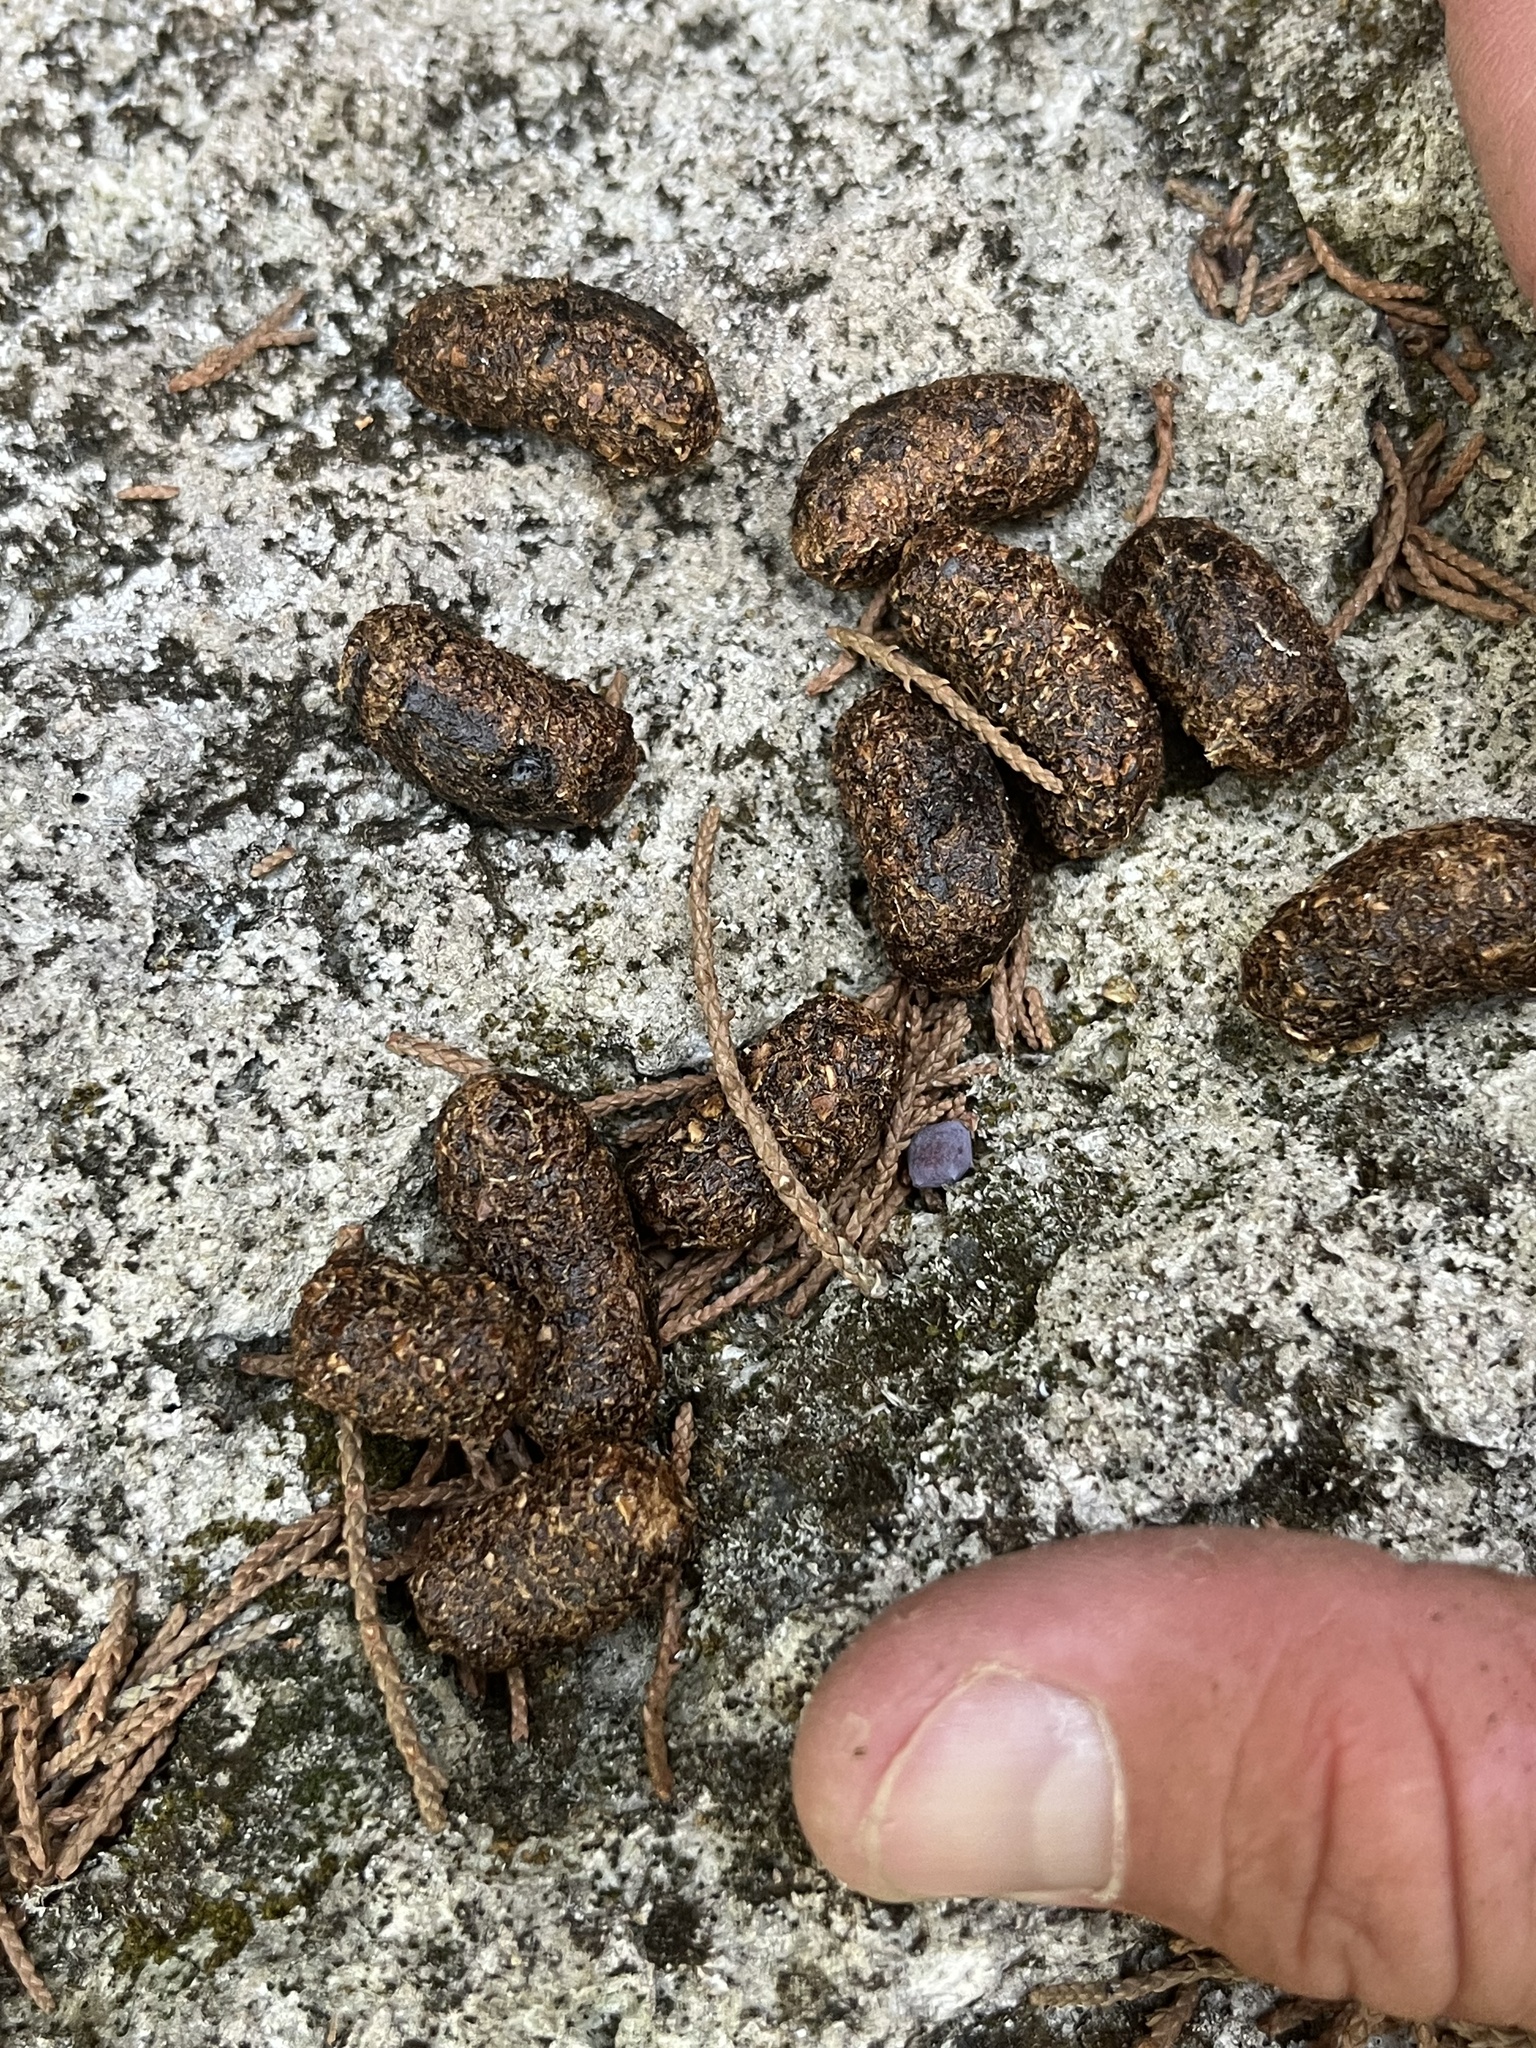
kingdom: Animalia
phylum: Chordata
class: Mammalia
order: Rodentia
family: Erethizontidae
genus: Erethizon
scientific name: Erethizon dorsatus
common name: North american porcupine
